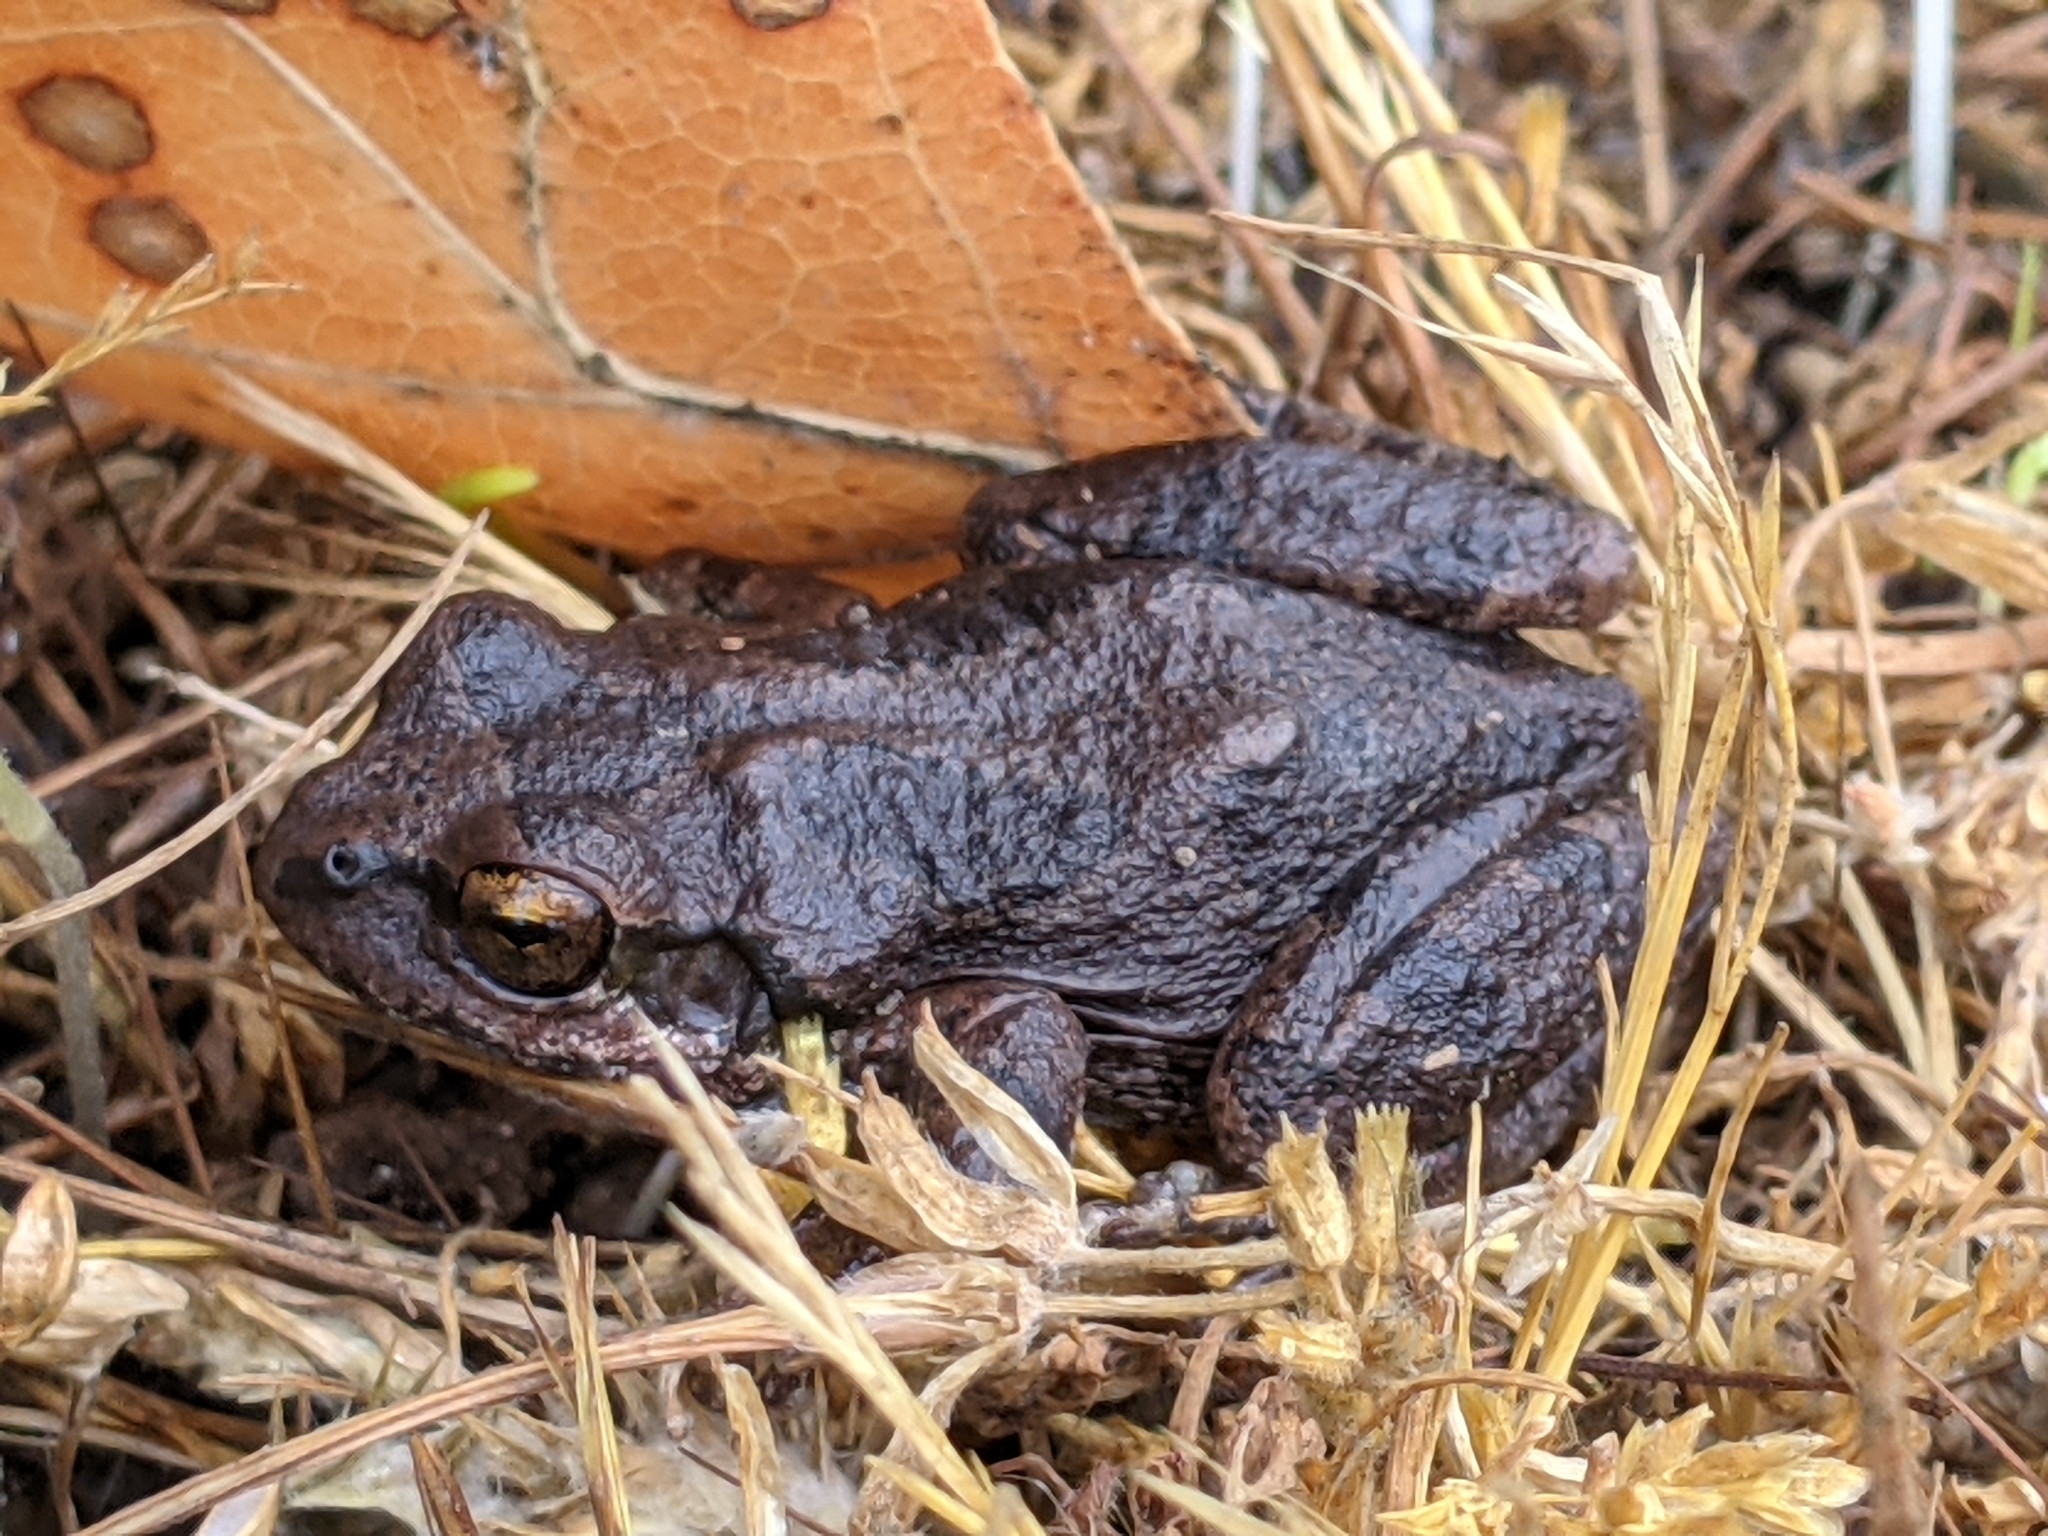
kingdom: Animalia
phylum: Chordata
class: Amphibia
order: Anura
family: Hylidae
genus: Pseudacris
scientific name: Pseudacris regilla
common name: Pacific chorus frog
